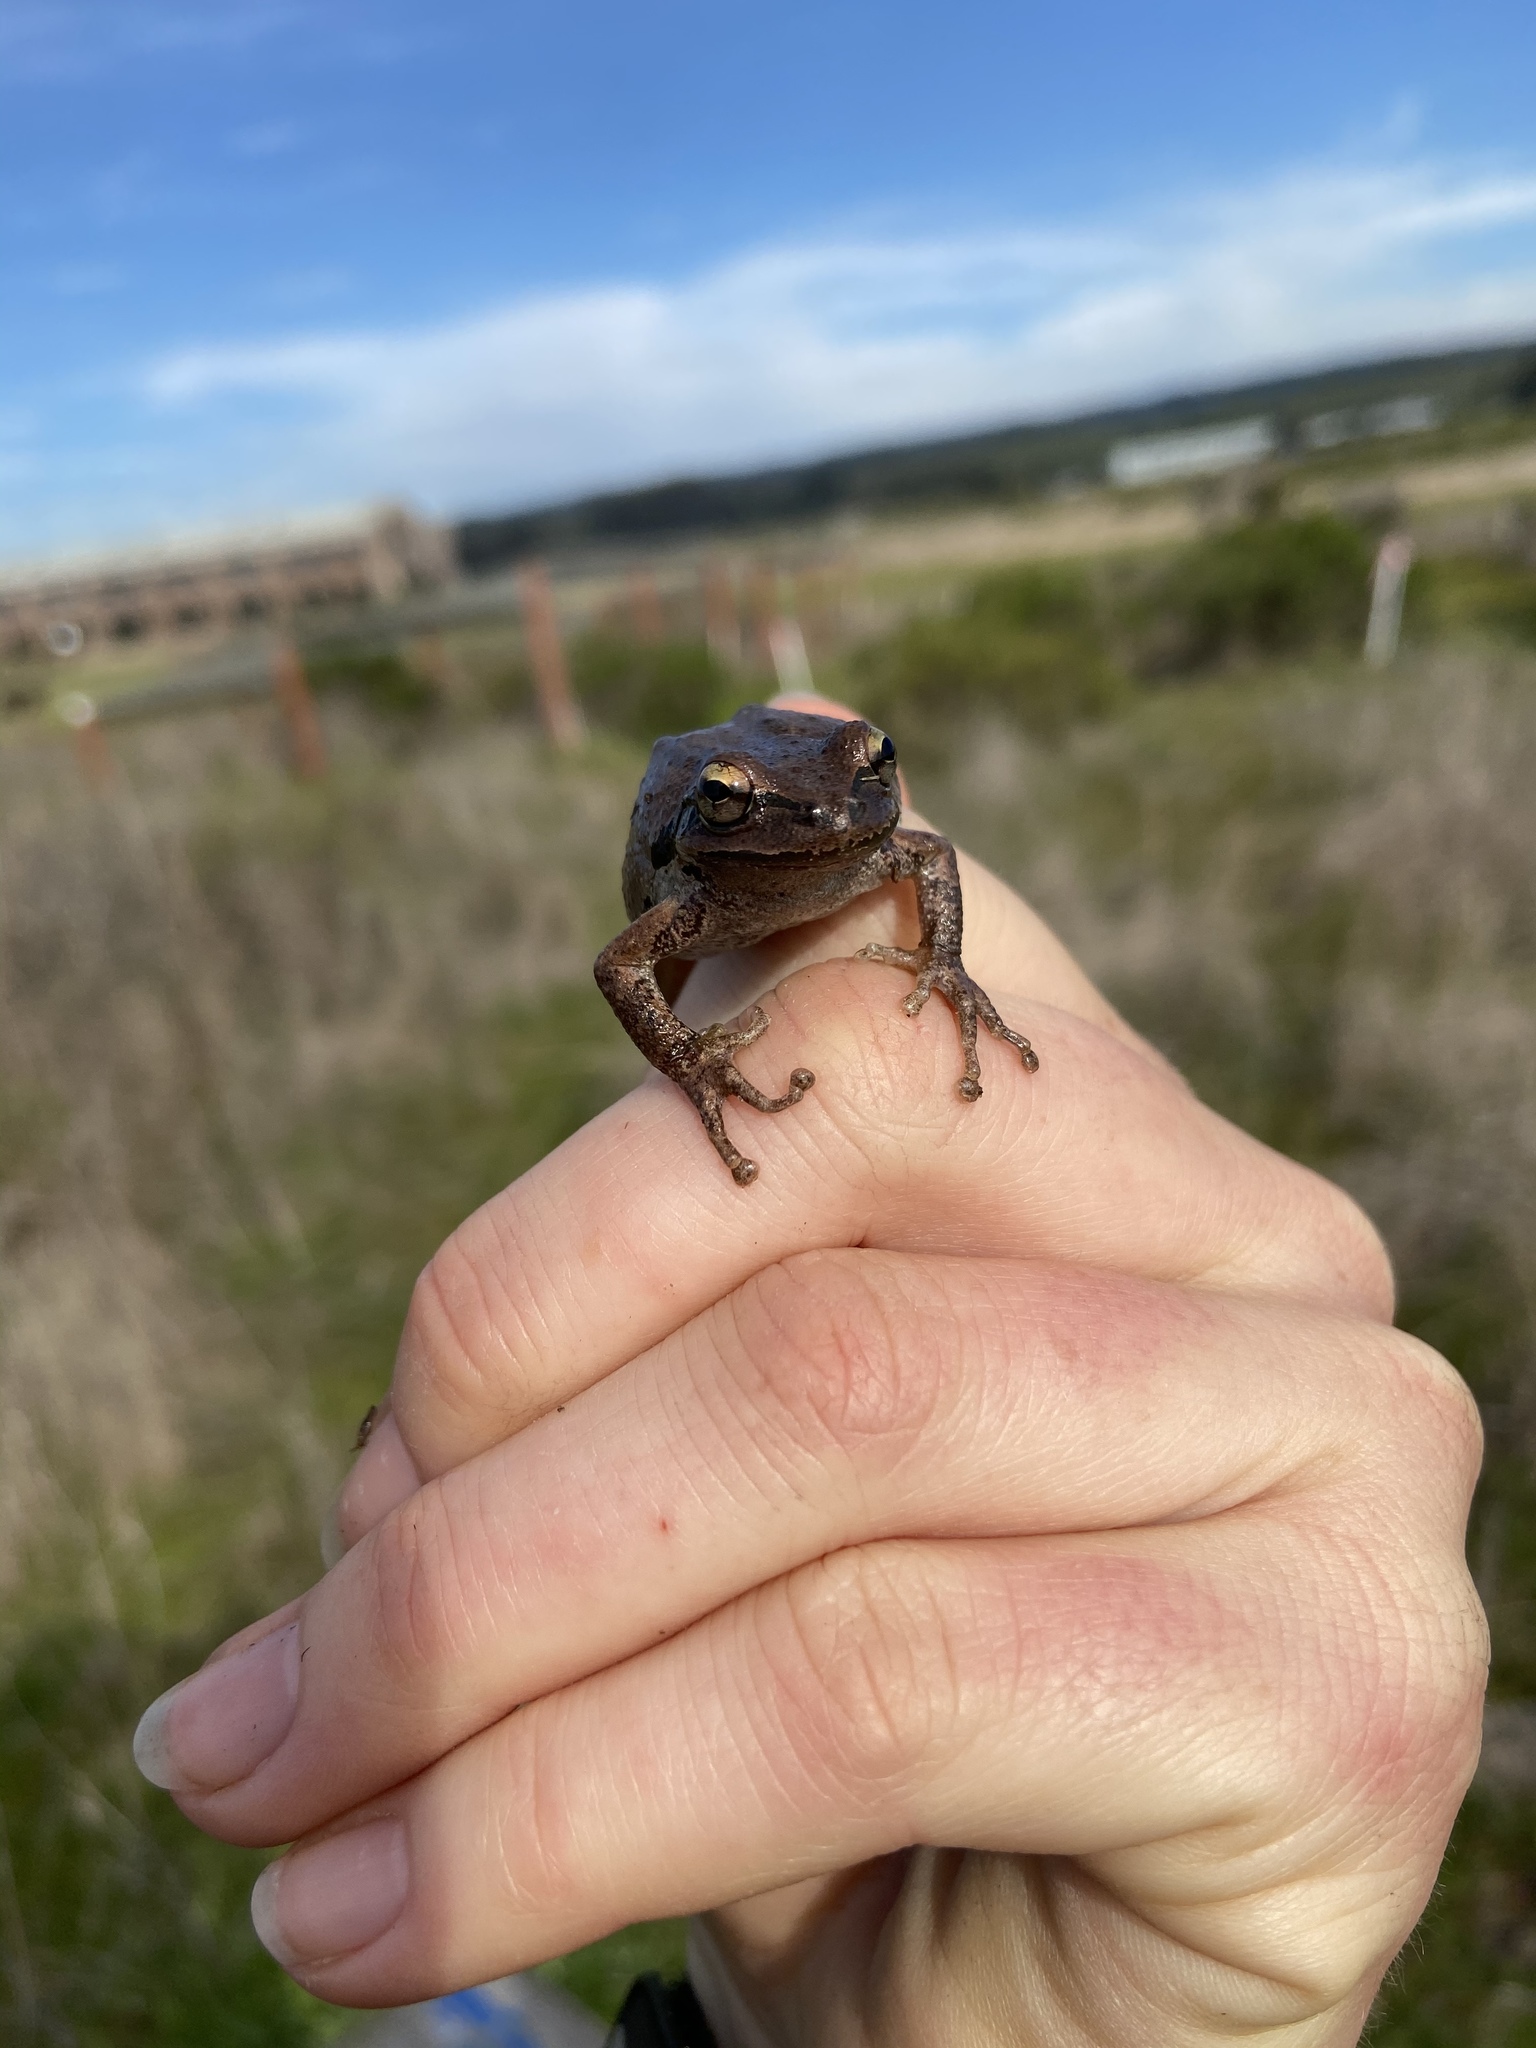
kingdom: Animalia
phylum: Chordata
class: Amphibia
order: Anura
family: Hylidae
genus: Pseudacris
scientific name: Pseudacris regilla
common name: Pacific chorus frog
